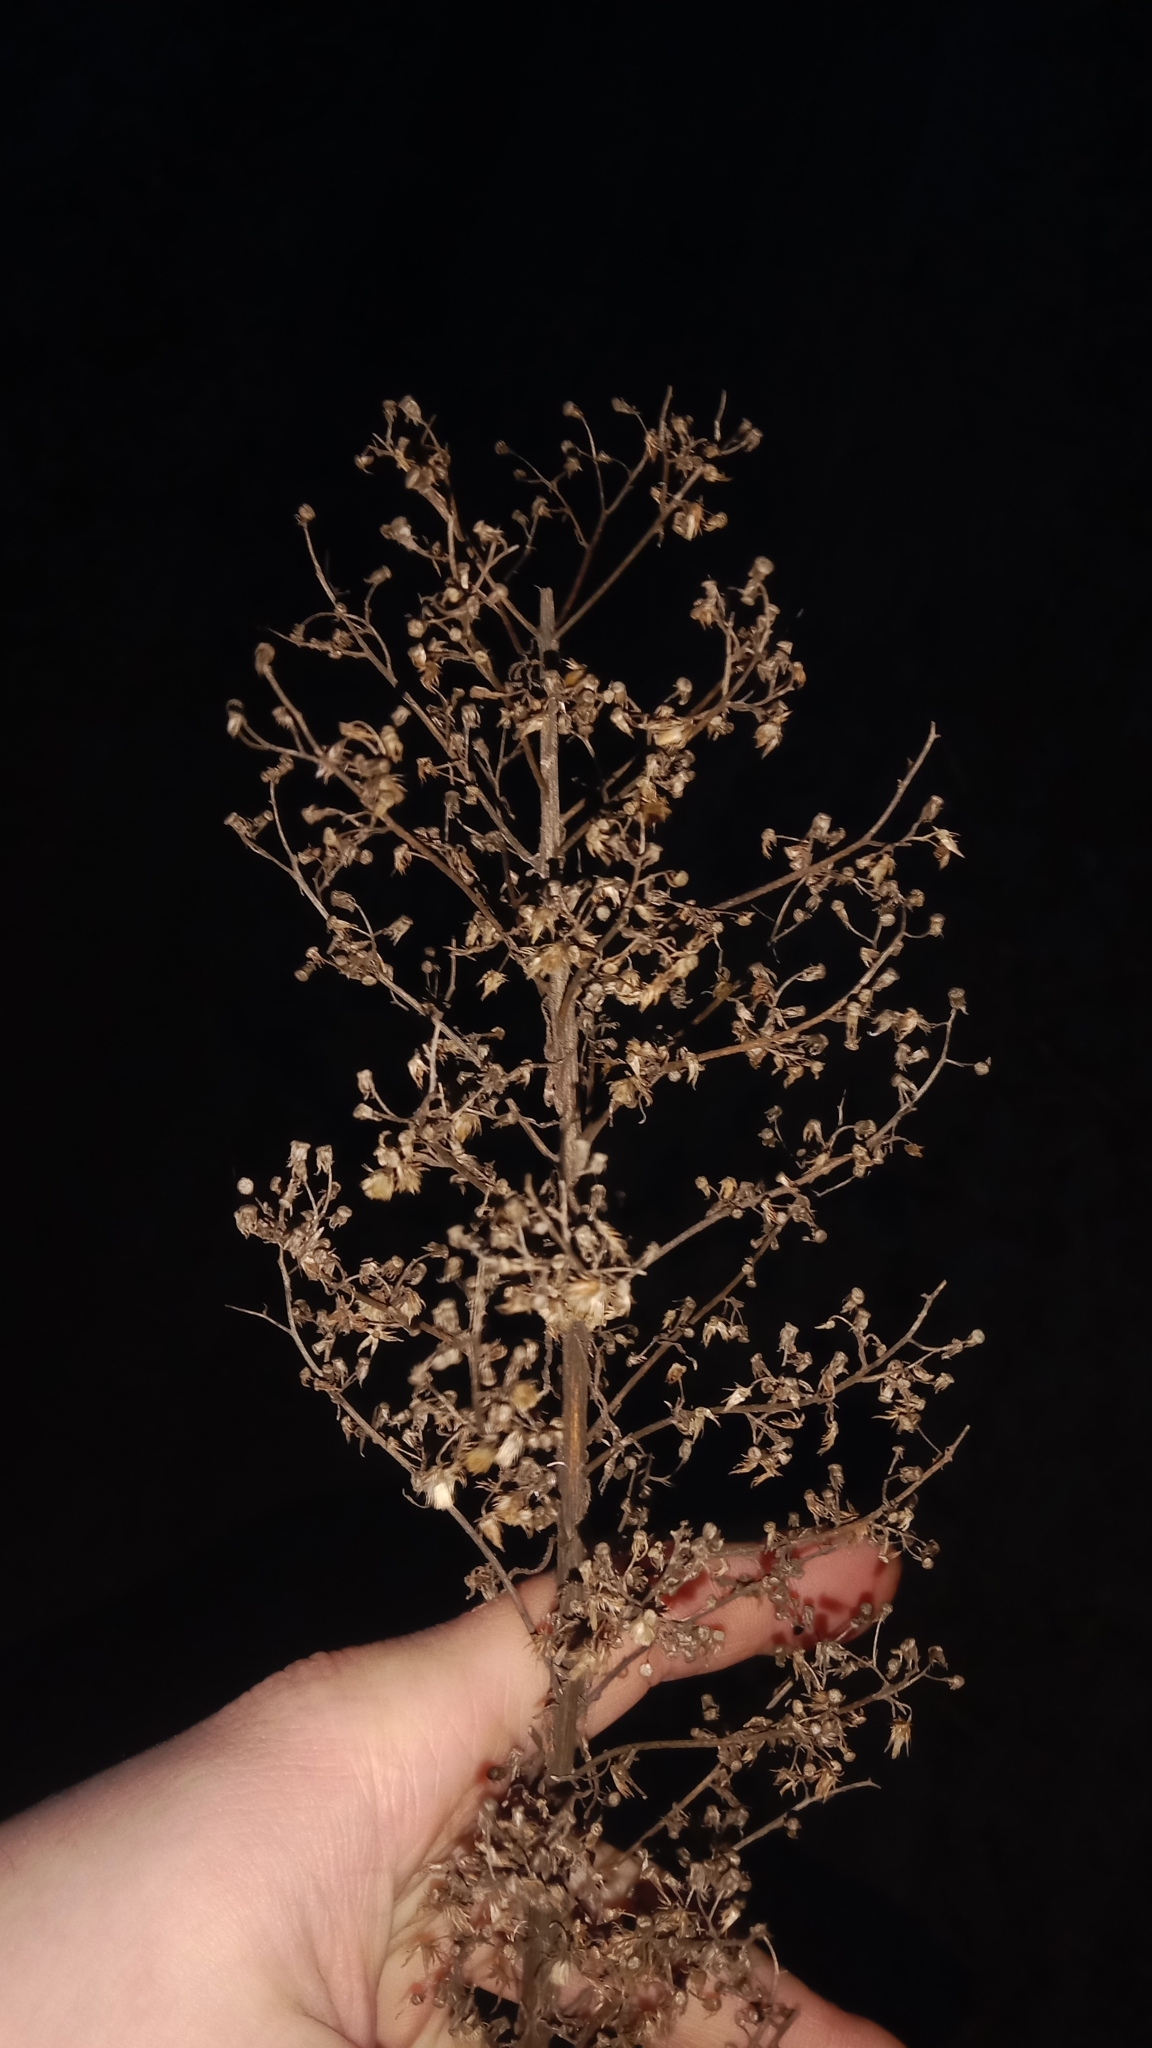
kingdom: Plantae
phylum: Tracheophyta
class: Magnoliopsida
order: Asterales
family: Asteraceae
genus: Erigeron
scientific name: Erigeron canadensis
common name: Canadian fleabane
